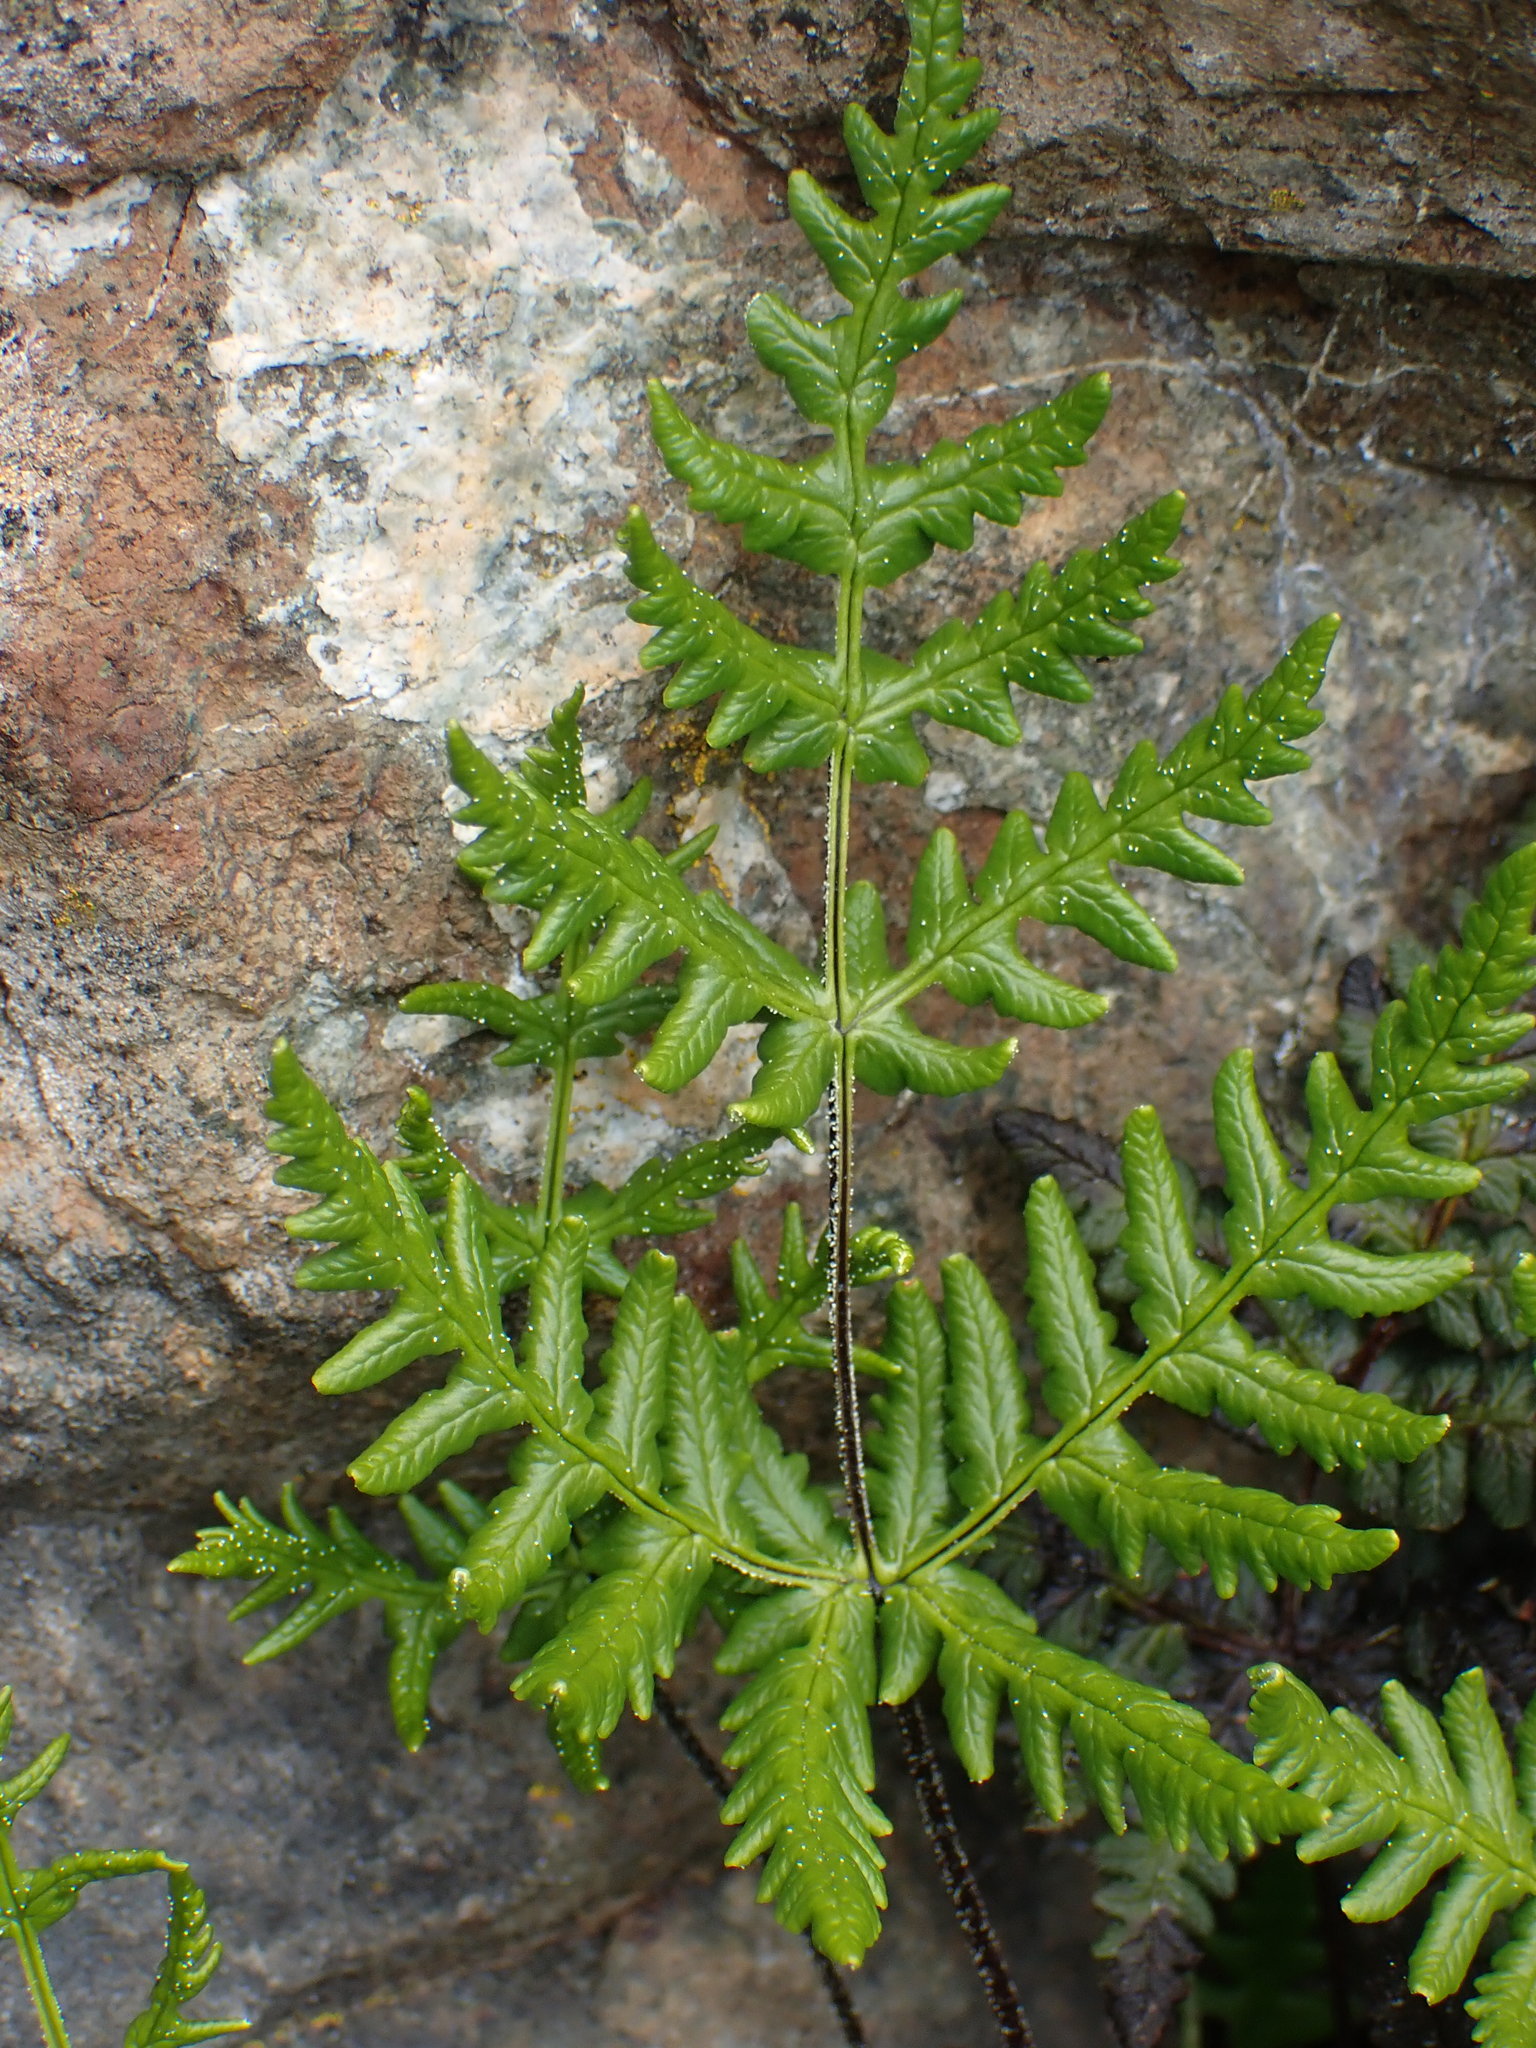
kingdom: Plantae
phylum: Tracheophyta
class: Polypodiopsida
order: Polypodiales
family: Pteridaceae
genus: Pentagramma
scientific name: Pentagramma triangularis
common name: Gold fern
